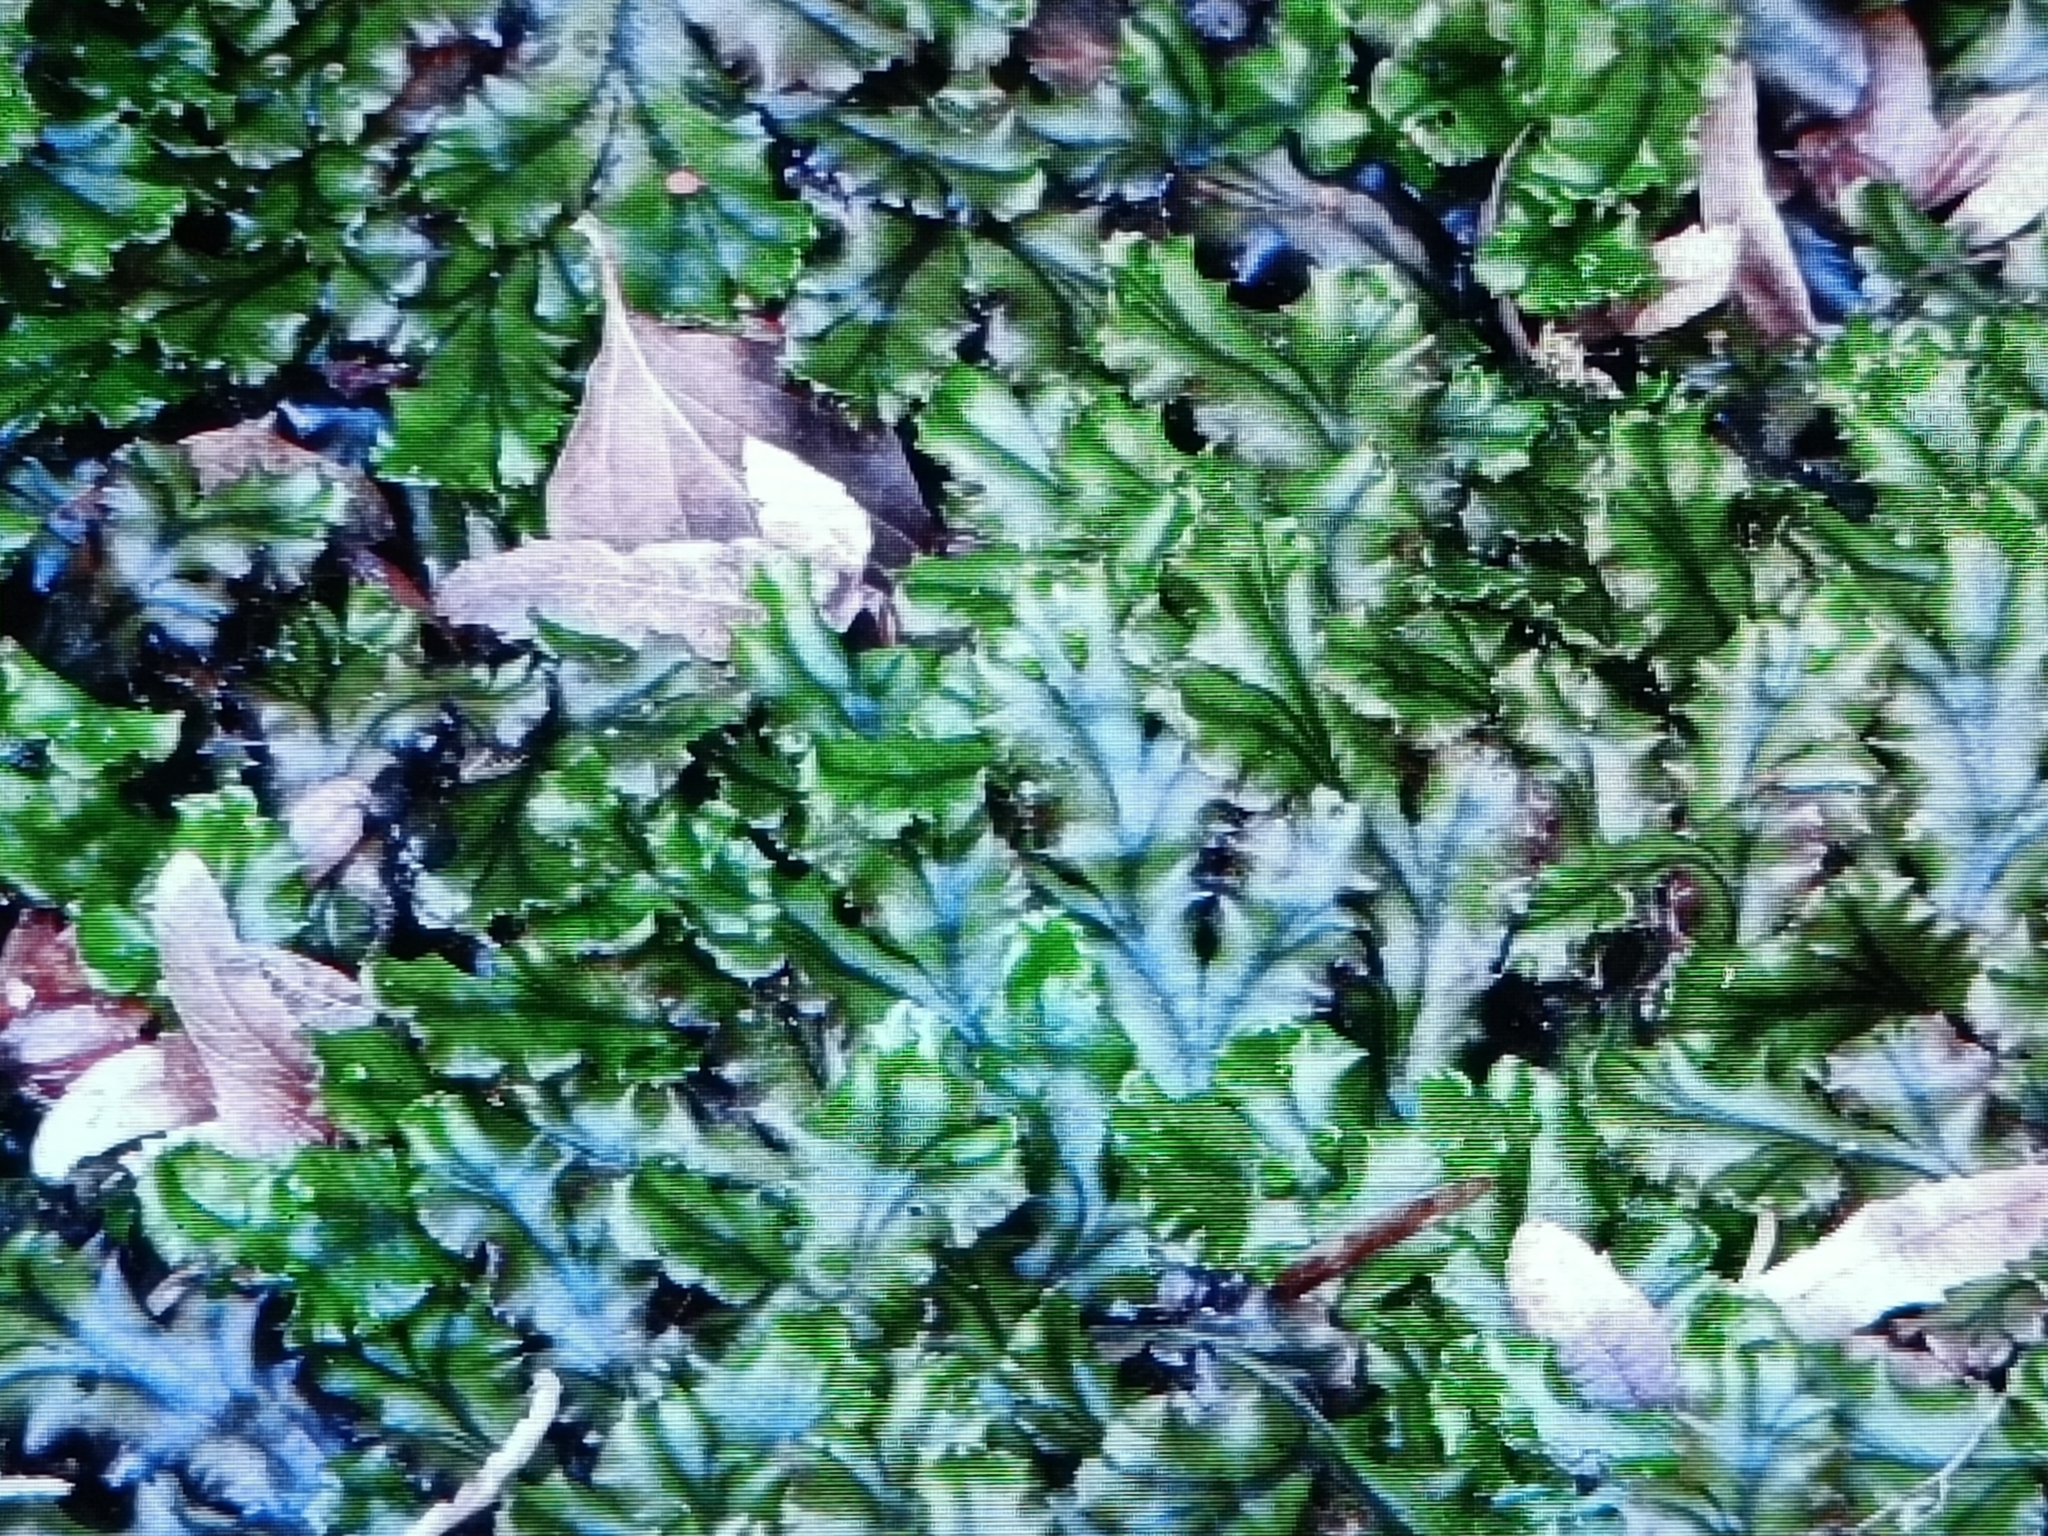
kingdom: Plantae
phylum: Marchantiophyta
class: Marchantiopsida
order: Marchantiales
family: Marchantiaceae
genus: Marchantia
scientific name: Marchantia polymorpha
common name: Common liverwort
